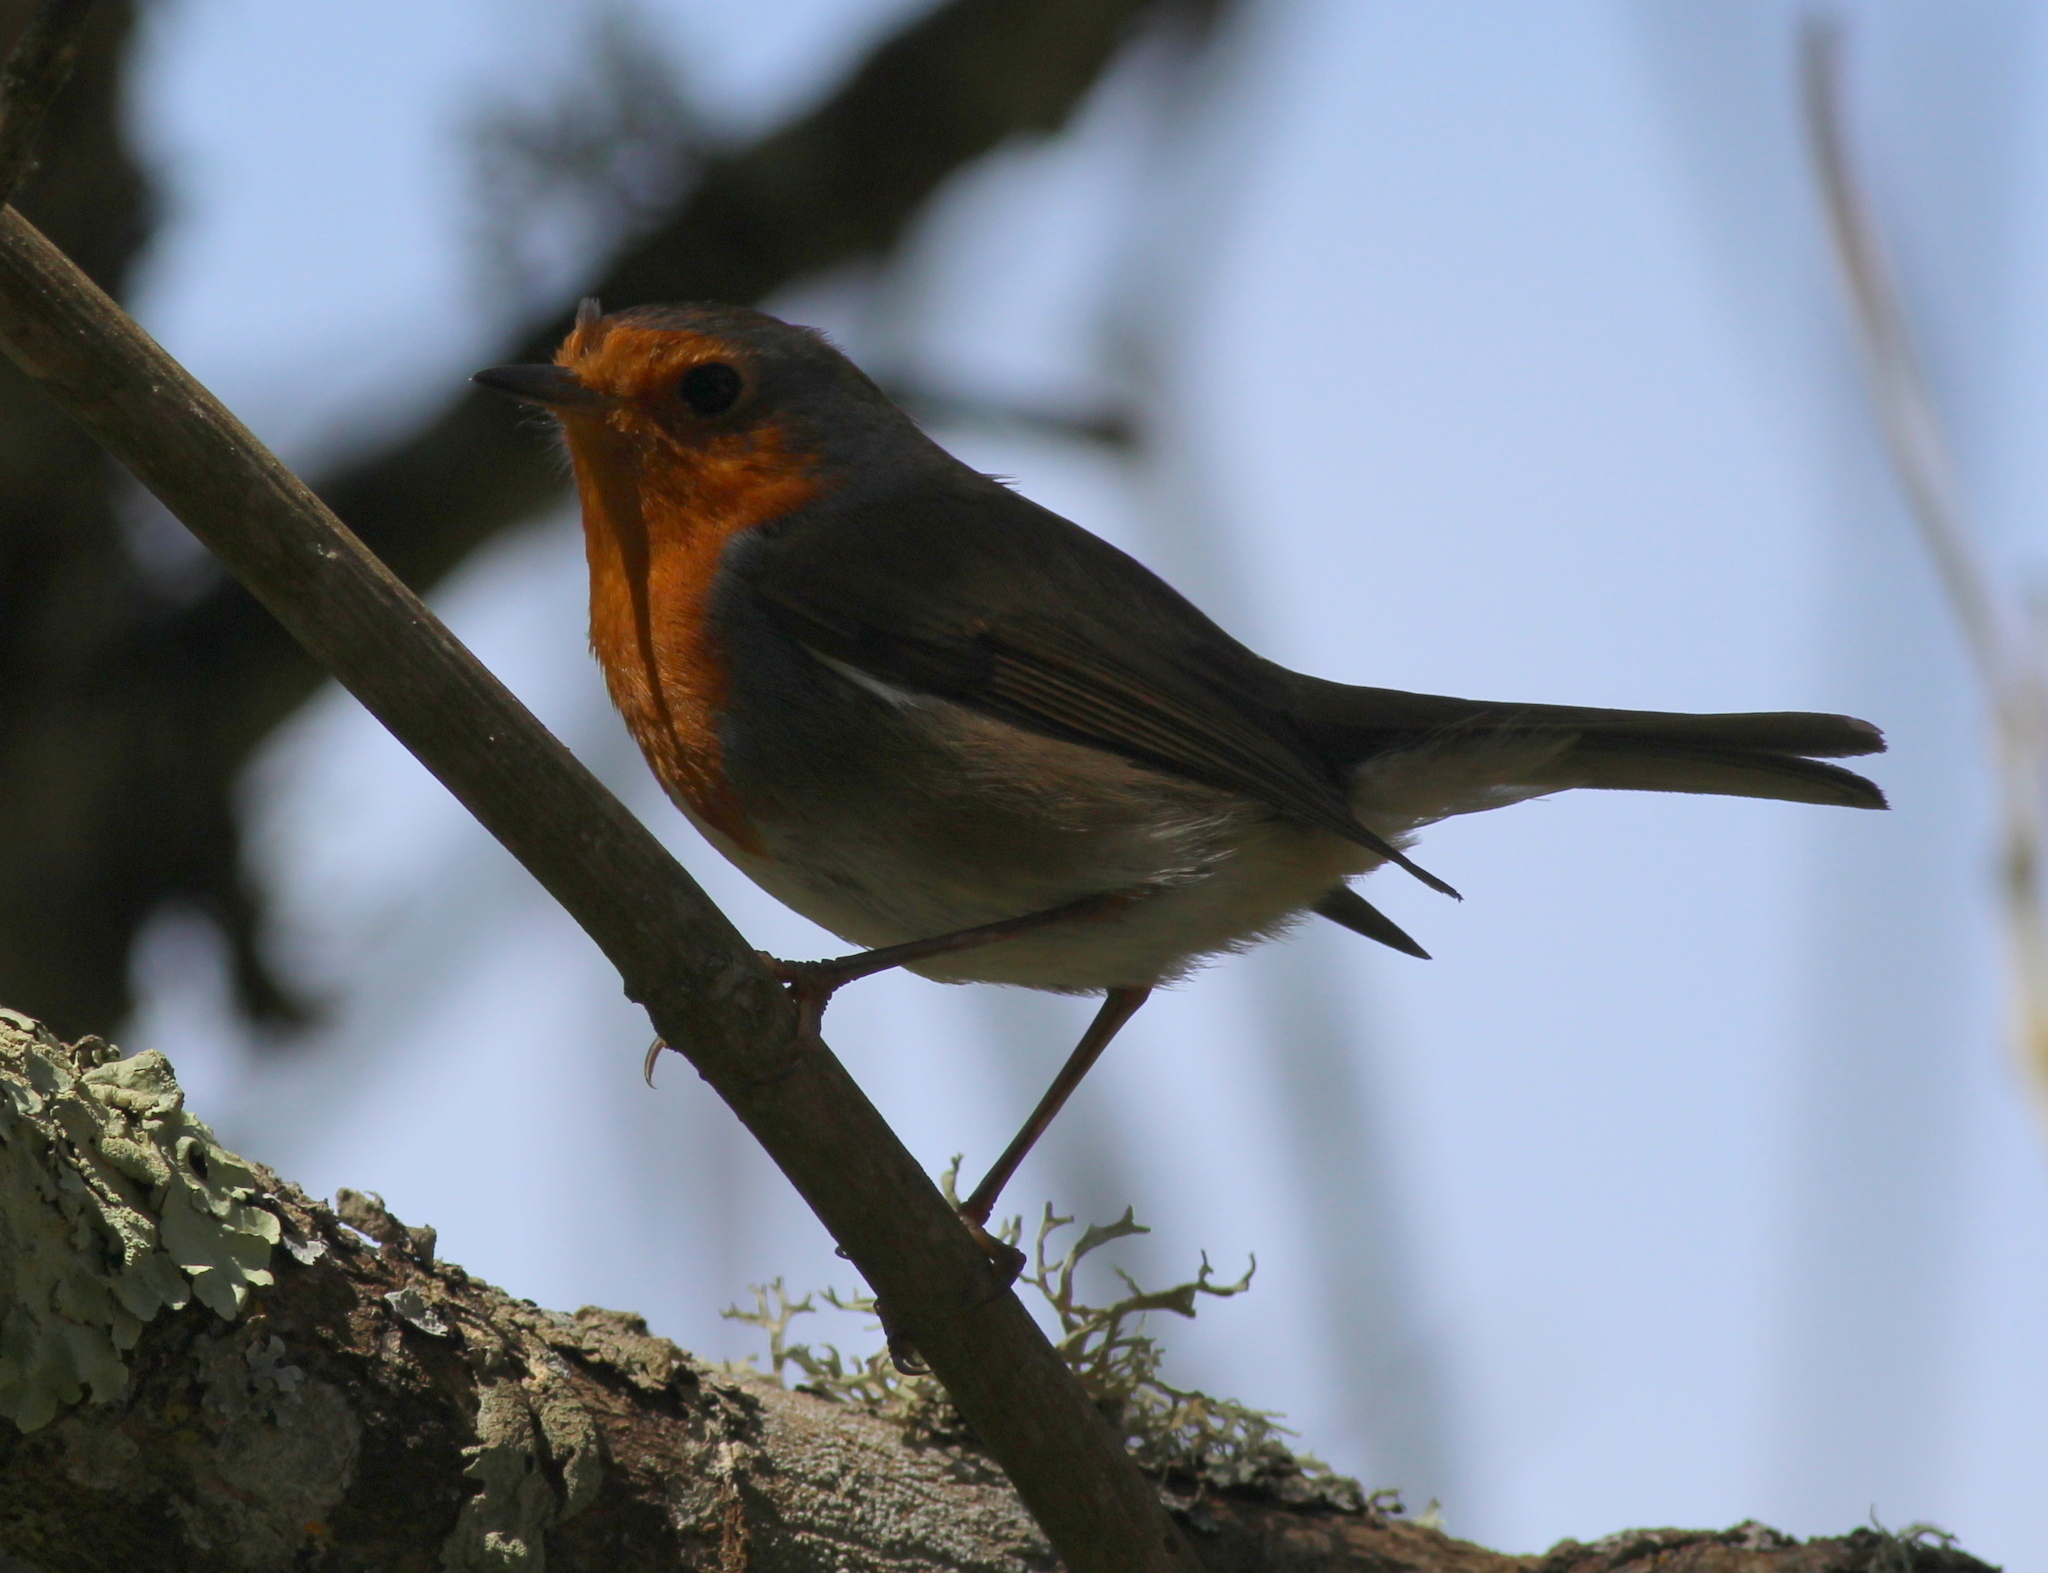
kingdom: Animalia
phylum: Chordata
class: Aves
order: Passeriformes
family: Muscicapidae
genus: Erithacus
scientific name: Erithacus rubecula
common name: European robin
